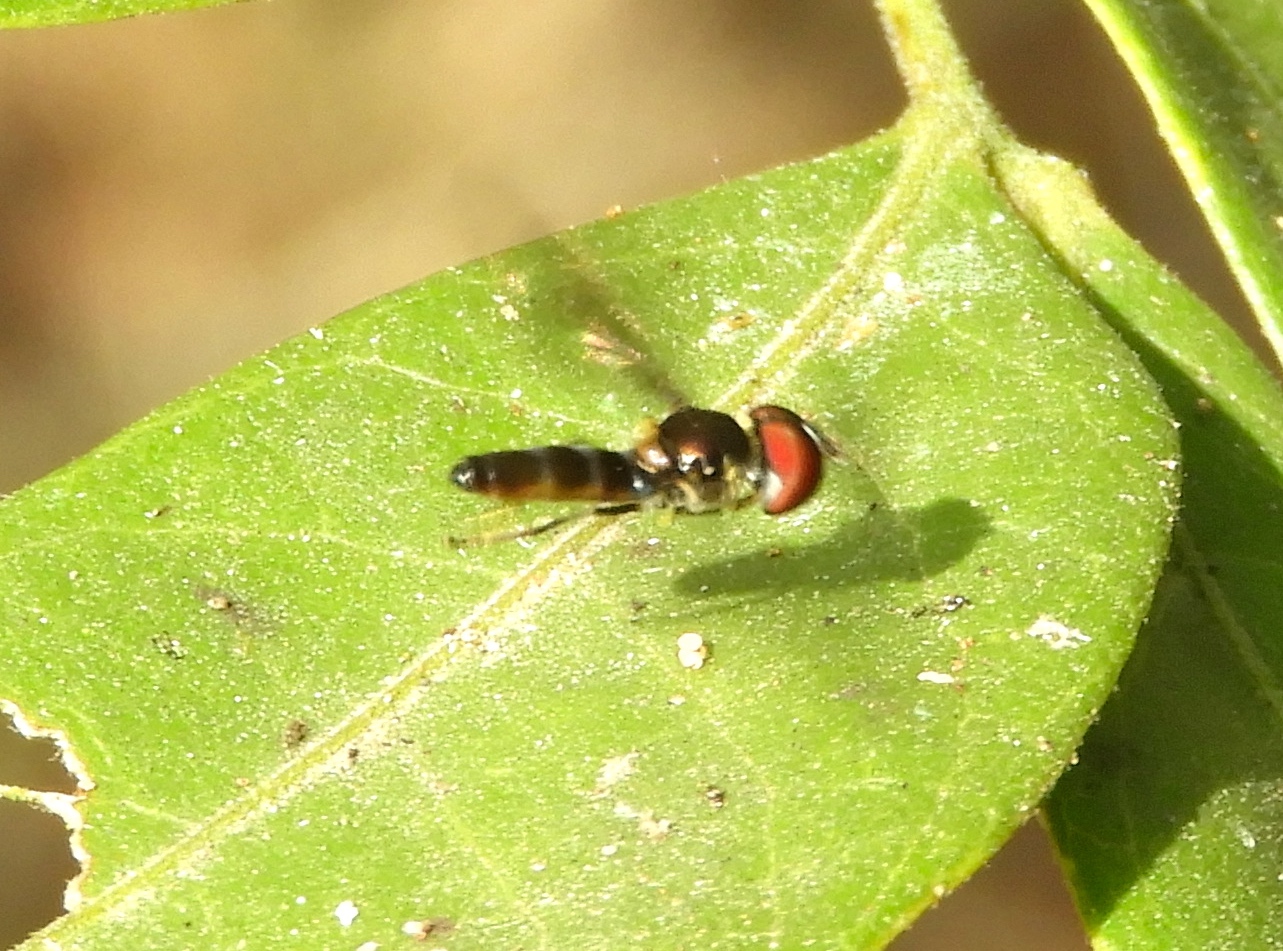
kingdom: Animalia
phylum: Arthropoda
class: Insecta
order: Diptera
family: Syrphidae
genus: Ocyptamus
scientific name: Ocyptamus antiphates
